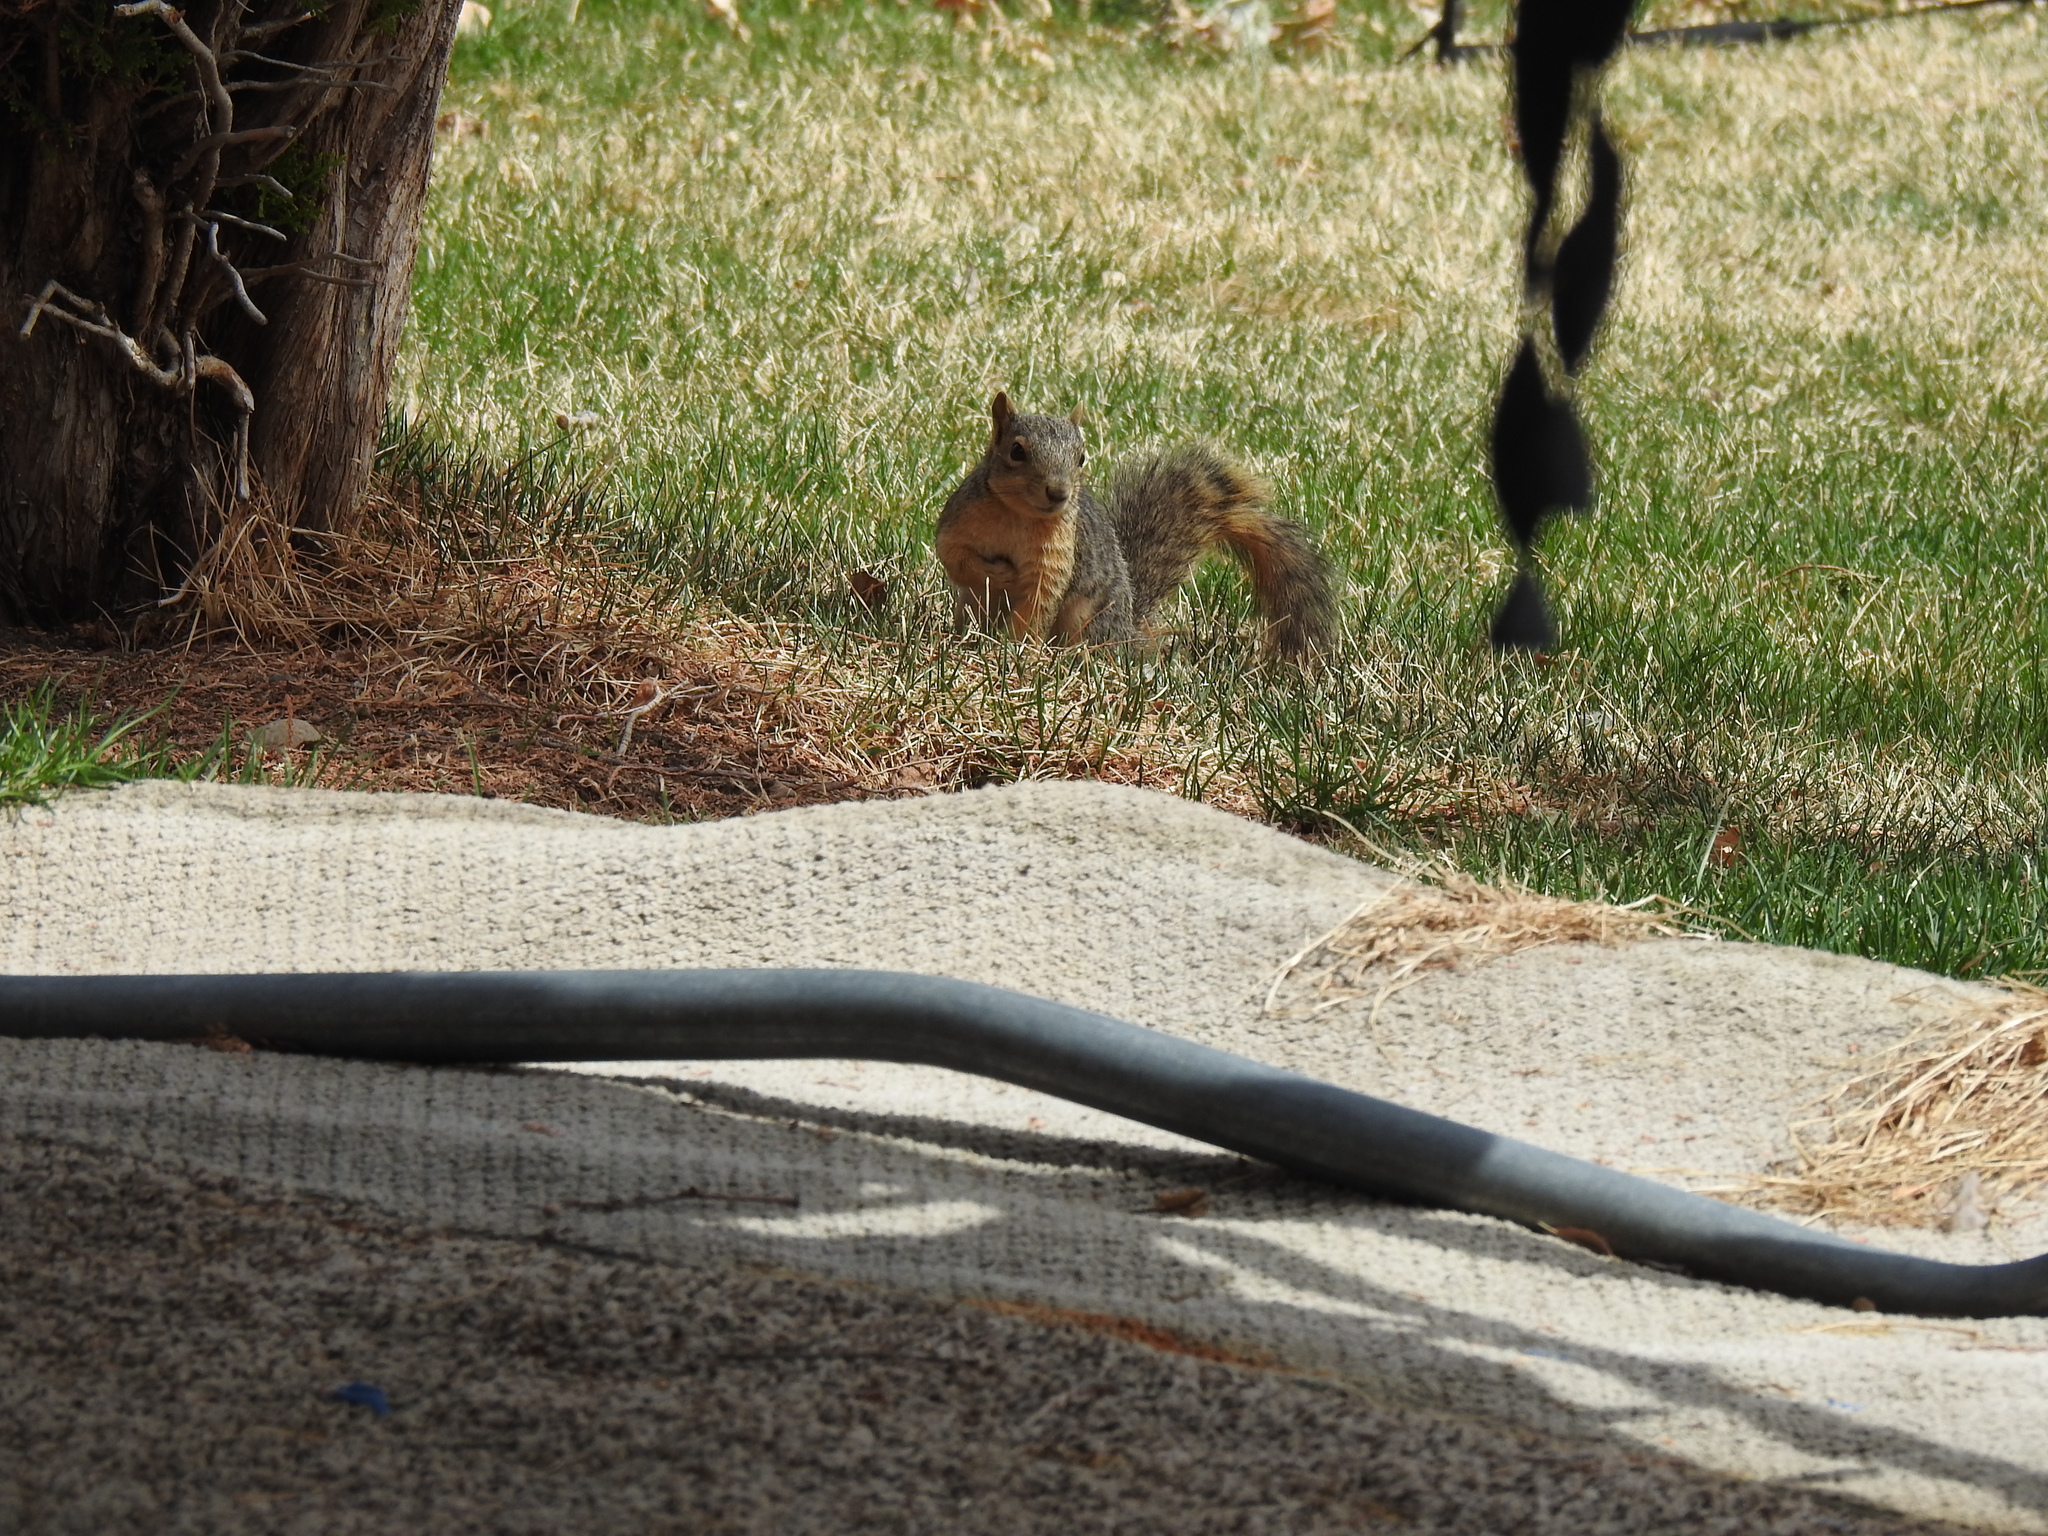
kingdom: Animalia
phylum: Chordata
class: Mammalia
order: Rodentia
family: Sciuridae
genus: Sciurus
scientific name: Sciurus niger
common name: Fox squirrel
